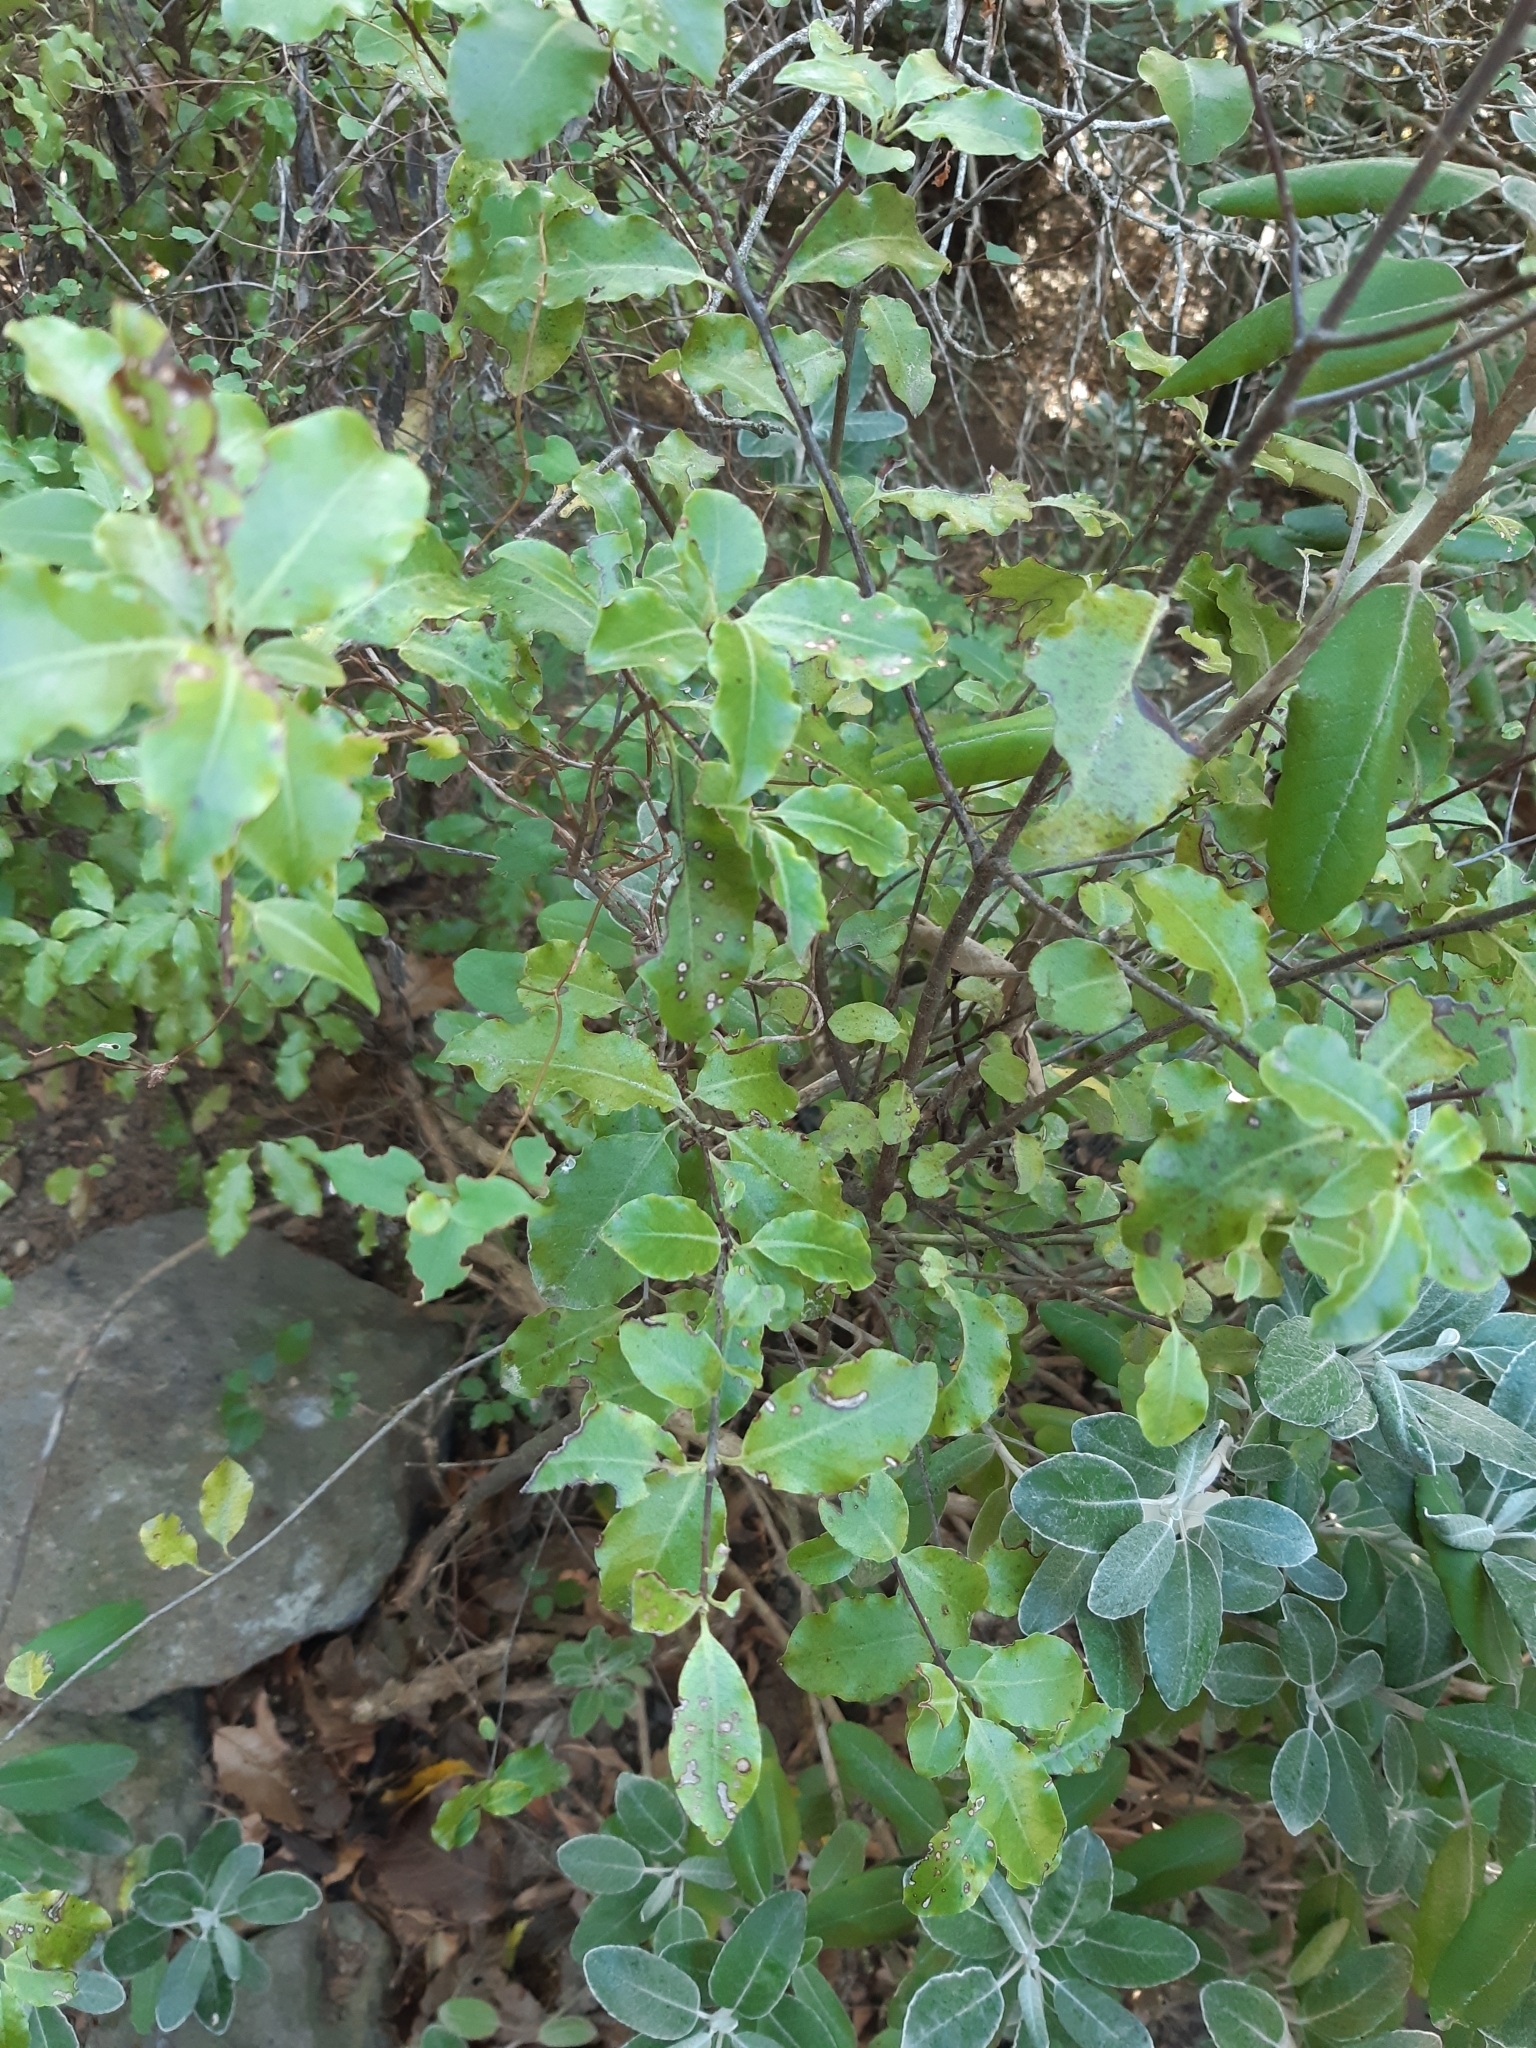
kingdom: Plantae
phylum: Tracheophyta
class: Magnoliopsida
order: Apiales
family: Pittosporaceae
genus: Pittosporum
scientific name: Pittosporum tenuifolium
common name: Kohuhu
